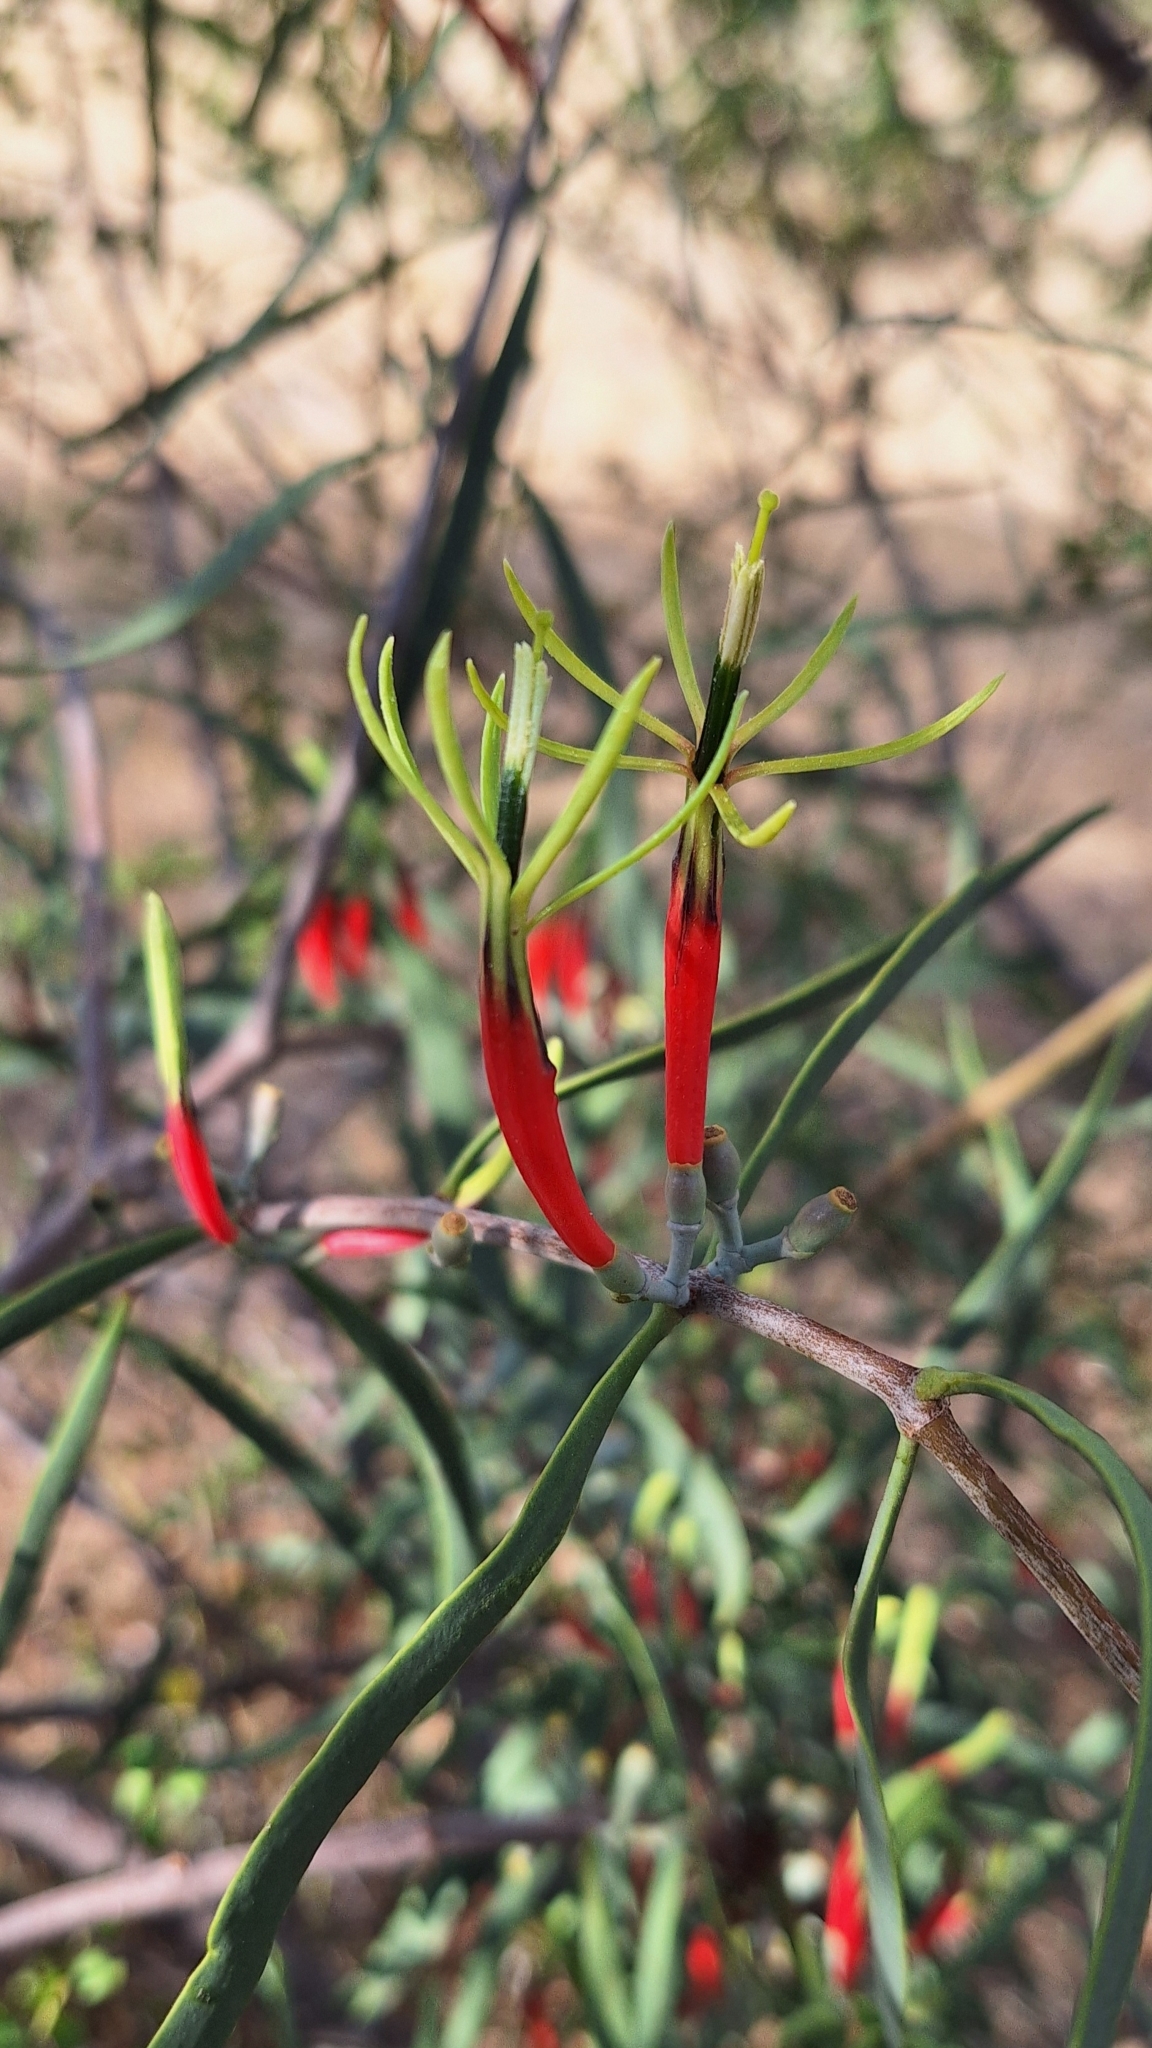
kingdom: Plantae
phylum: Tracheophyta
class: Magnoliopsida
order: Santalales
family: Loranthaceae
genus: Lysiana
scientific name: Lysiana exocarpi
